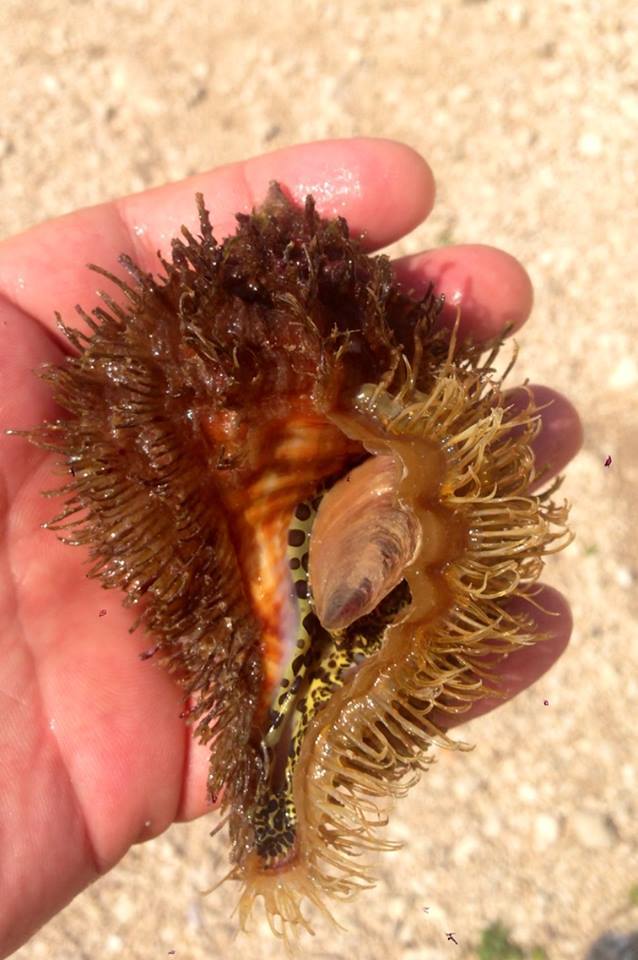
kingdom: Animalia
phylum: Mollusca
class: Gastropoda
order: Littorinimorpha
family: Cymatiidae
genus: Monoplex
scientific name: Monoplex parthenopeus
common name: Giant triton
